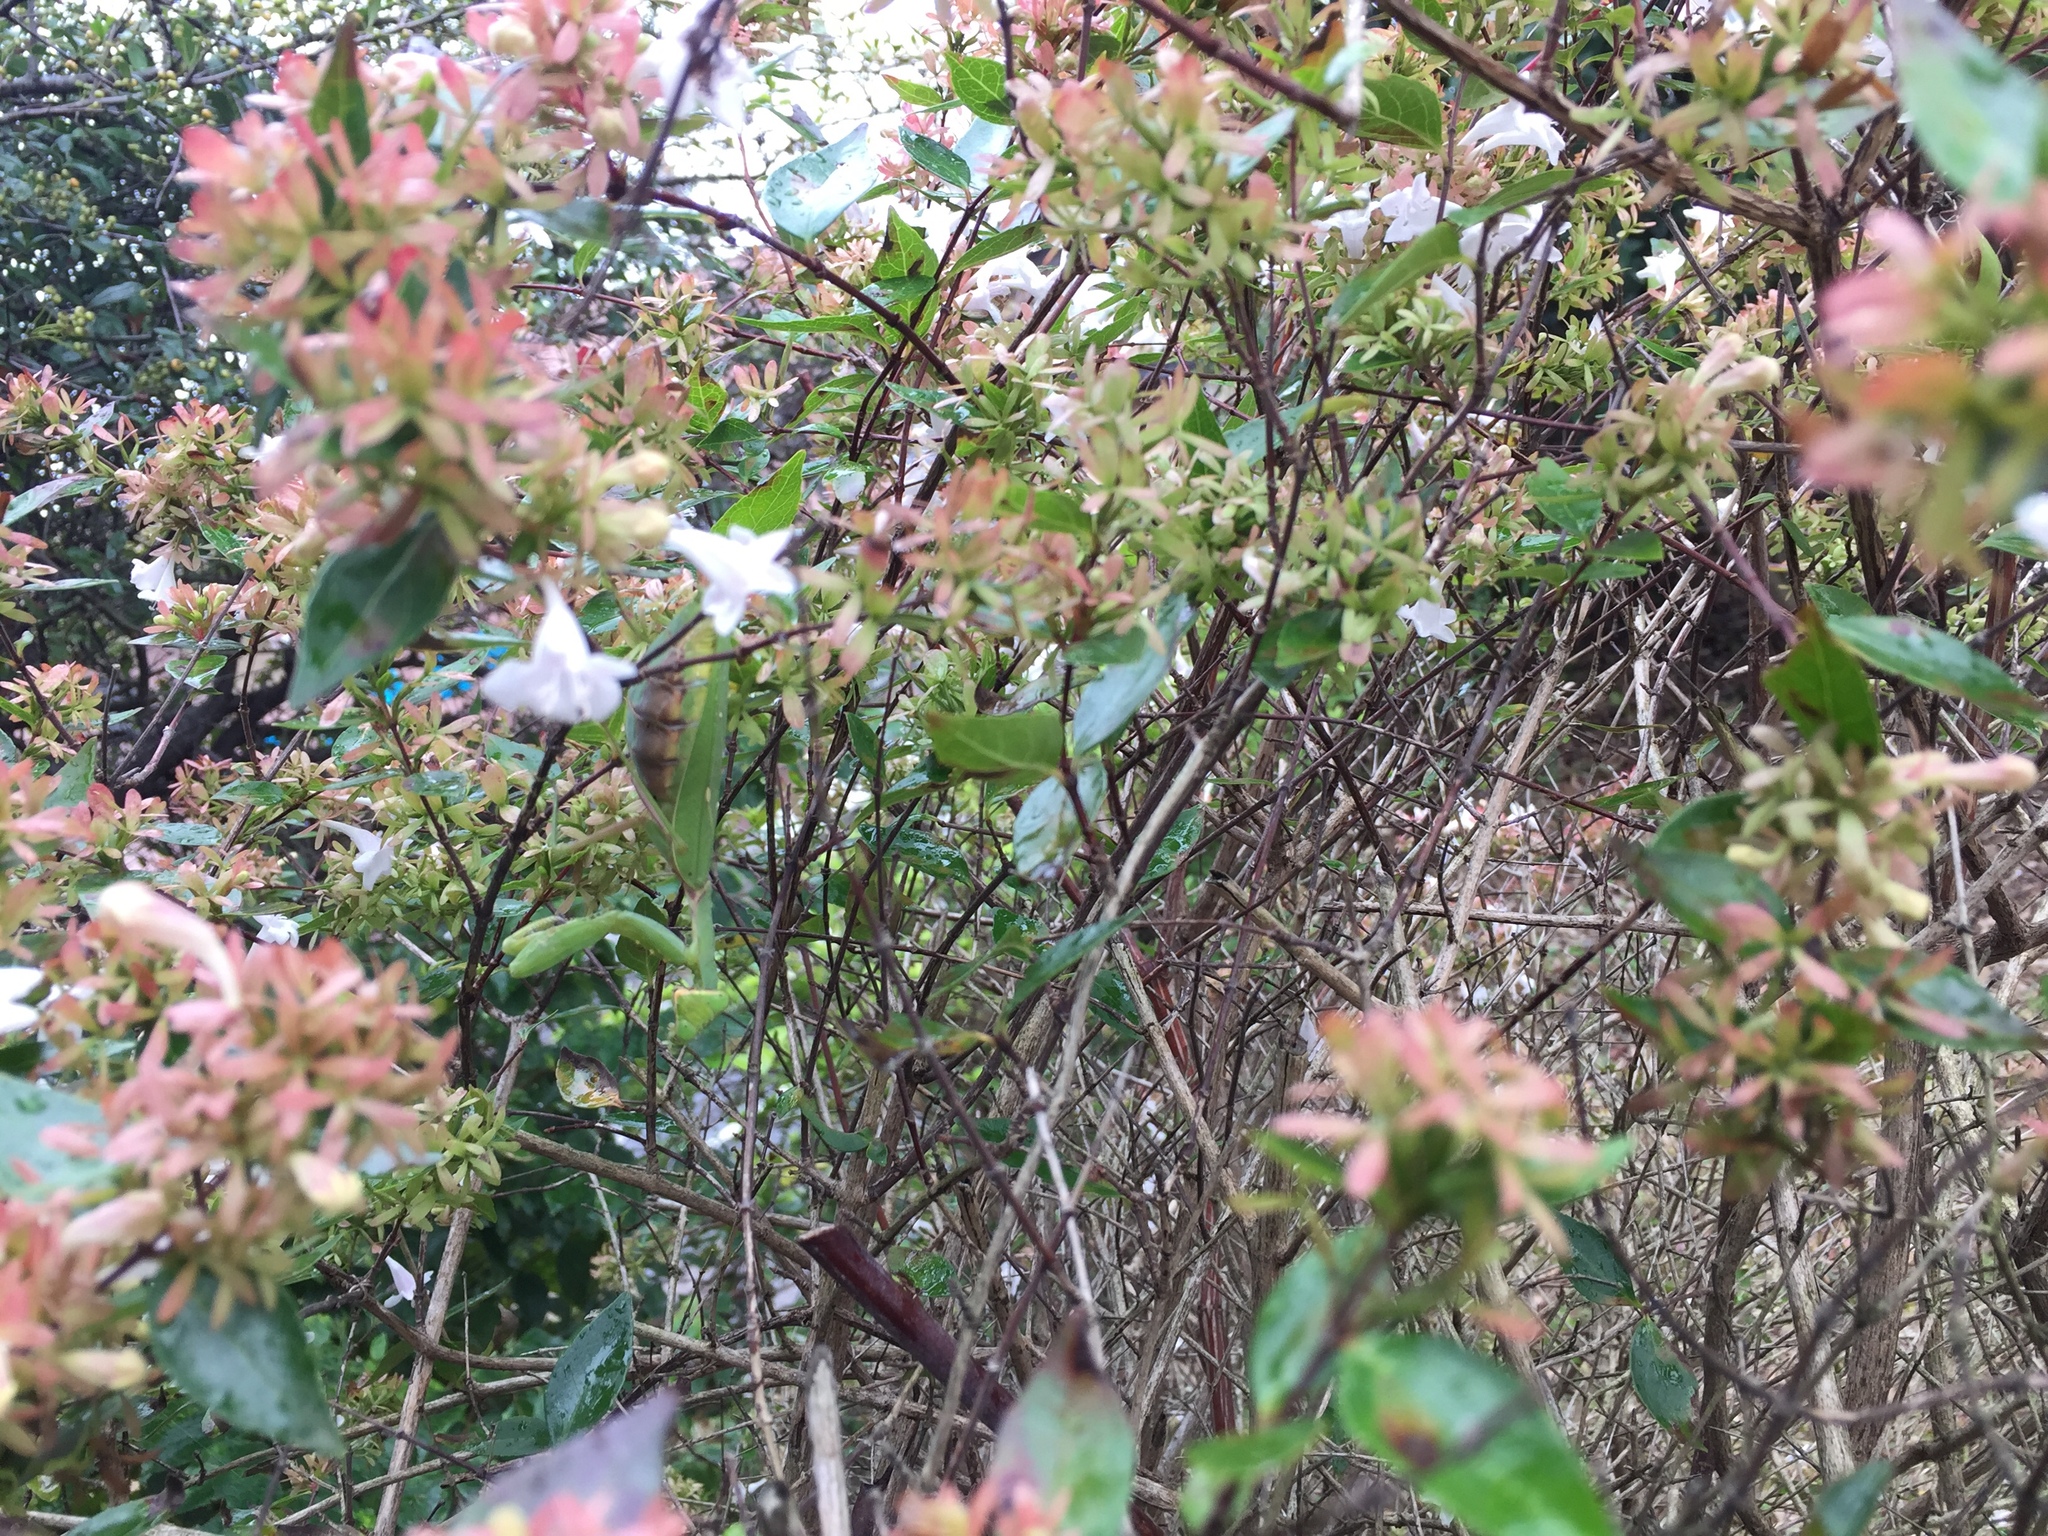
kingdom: Animalia
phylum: Arthropoda
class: Insecta
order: Mantodea
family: Mantidae
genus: Hierodula
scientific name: Hierodula patellifera
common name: Asian mantis
